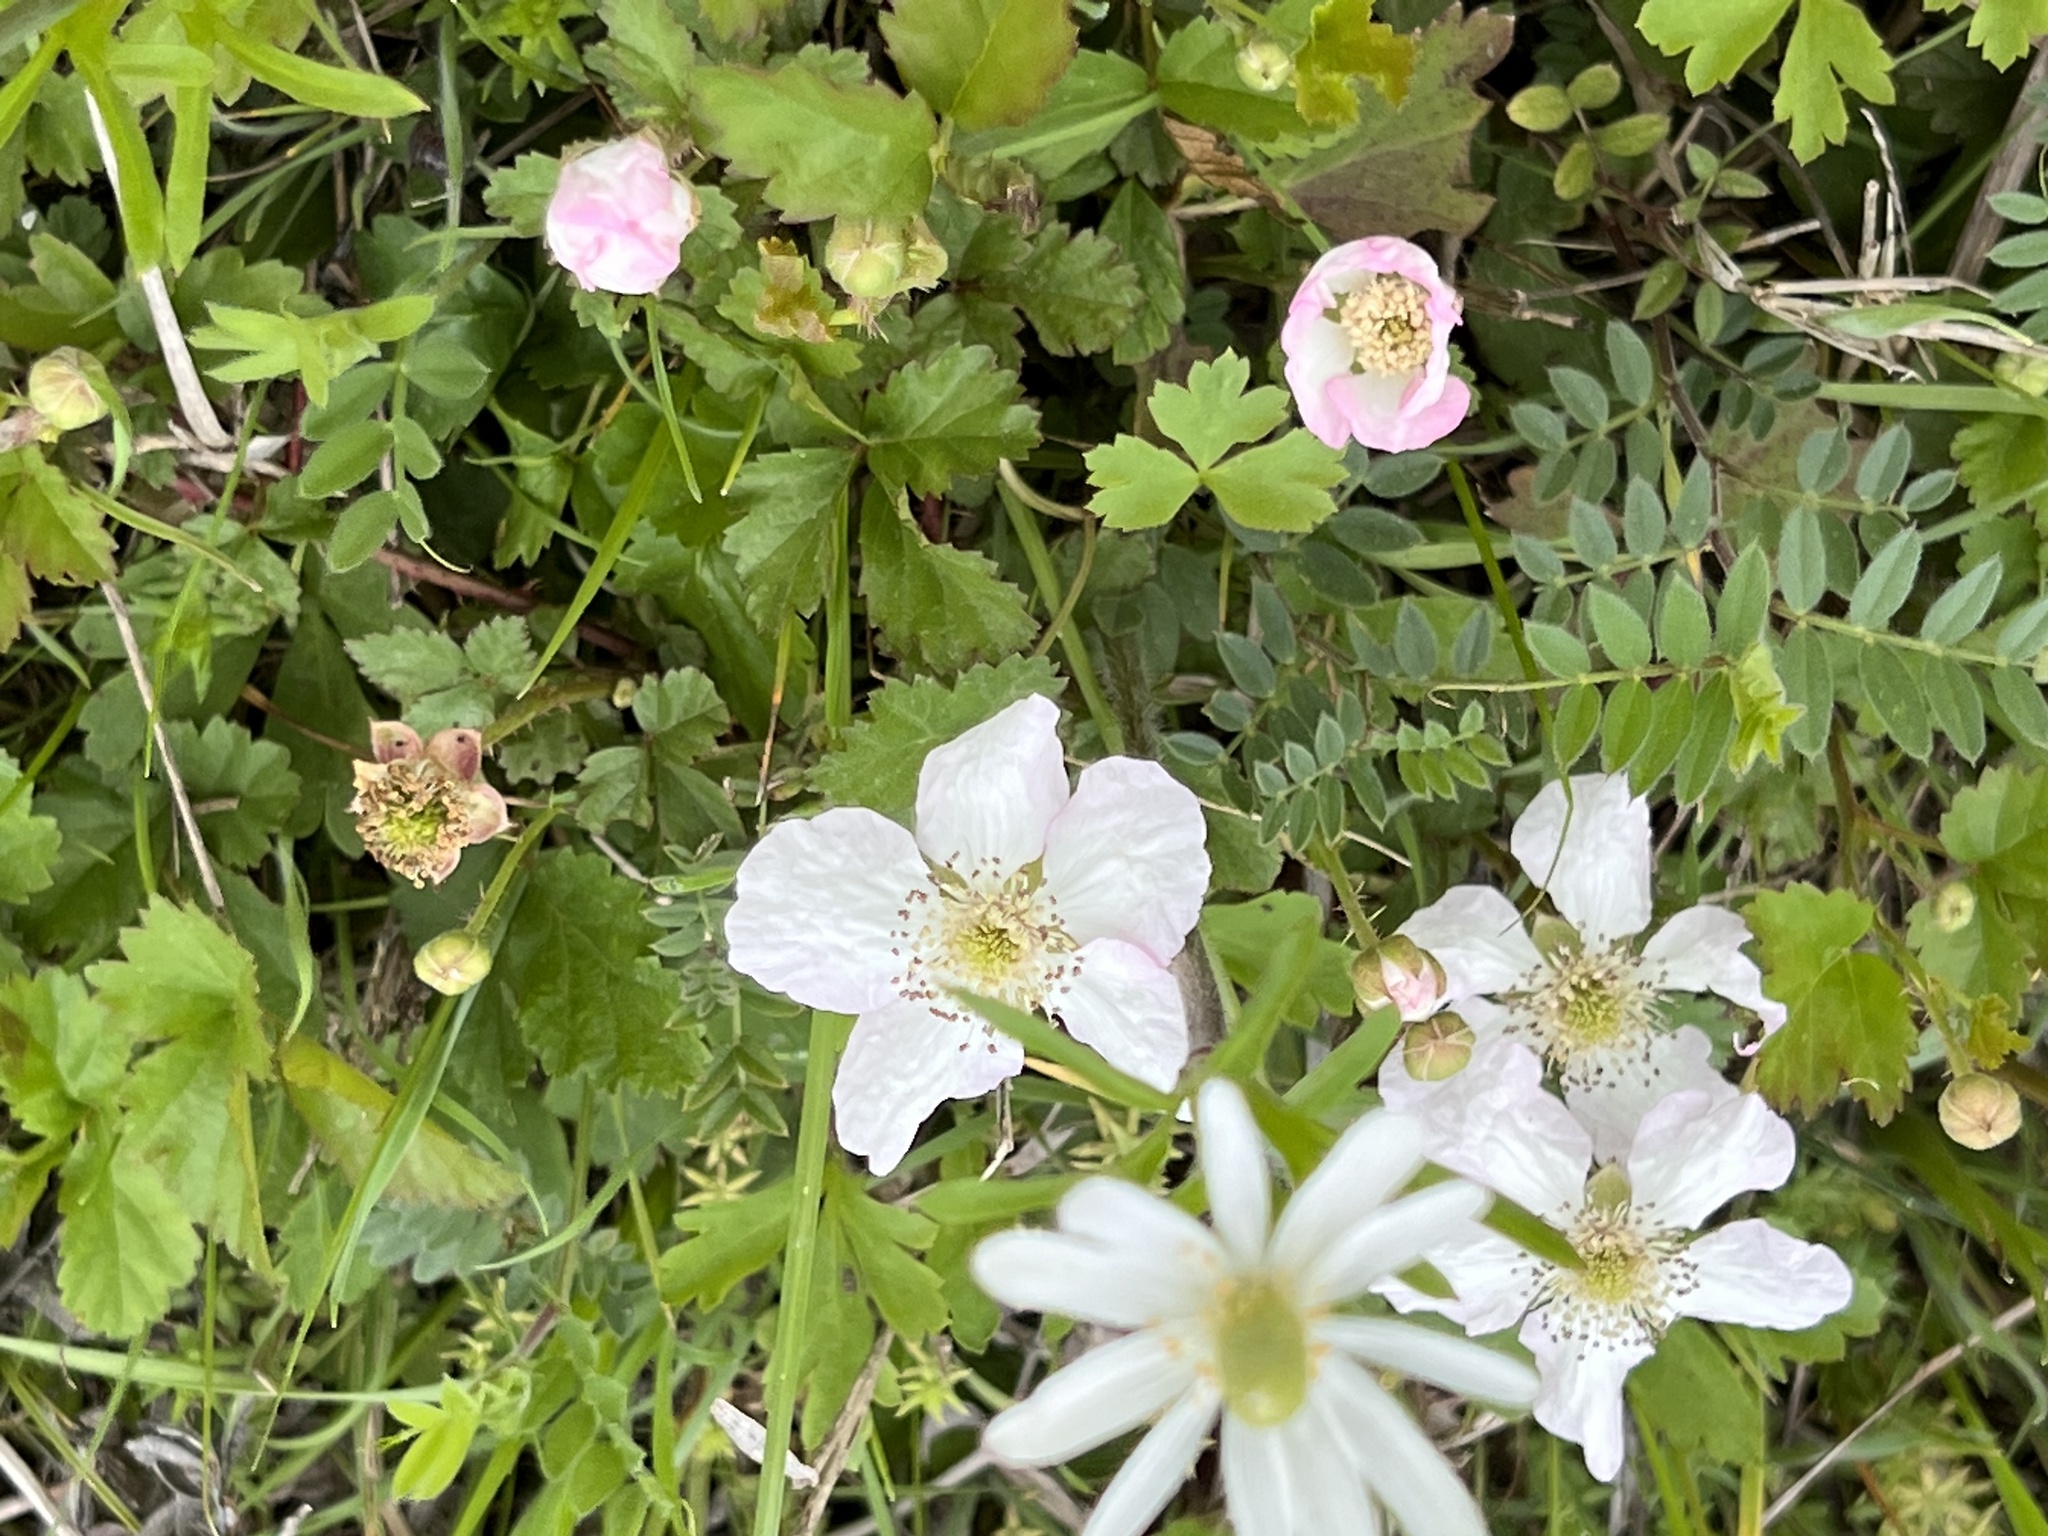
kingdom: Plantae
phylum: Tracheophyta
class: Magnoliopsida
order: Rosales
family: Rosaceae
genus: Rubus
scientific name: Rubus trivialis
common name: Southern dewberry
